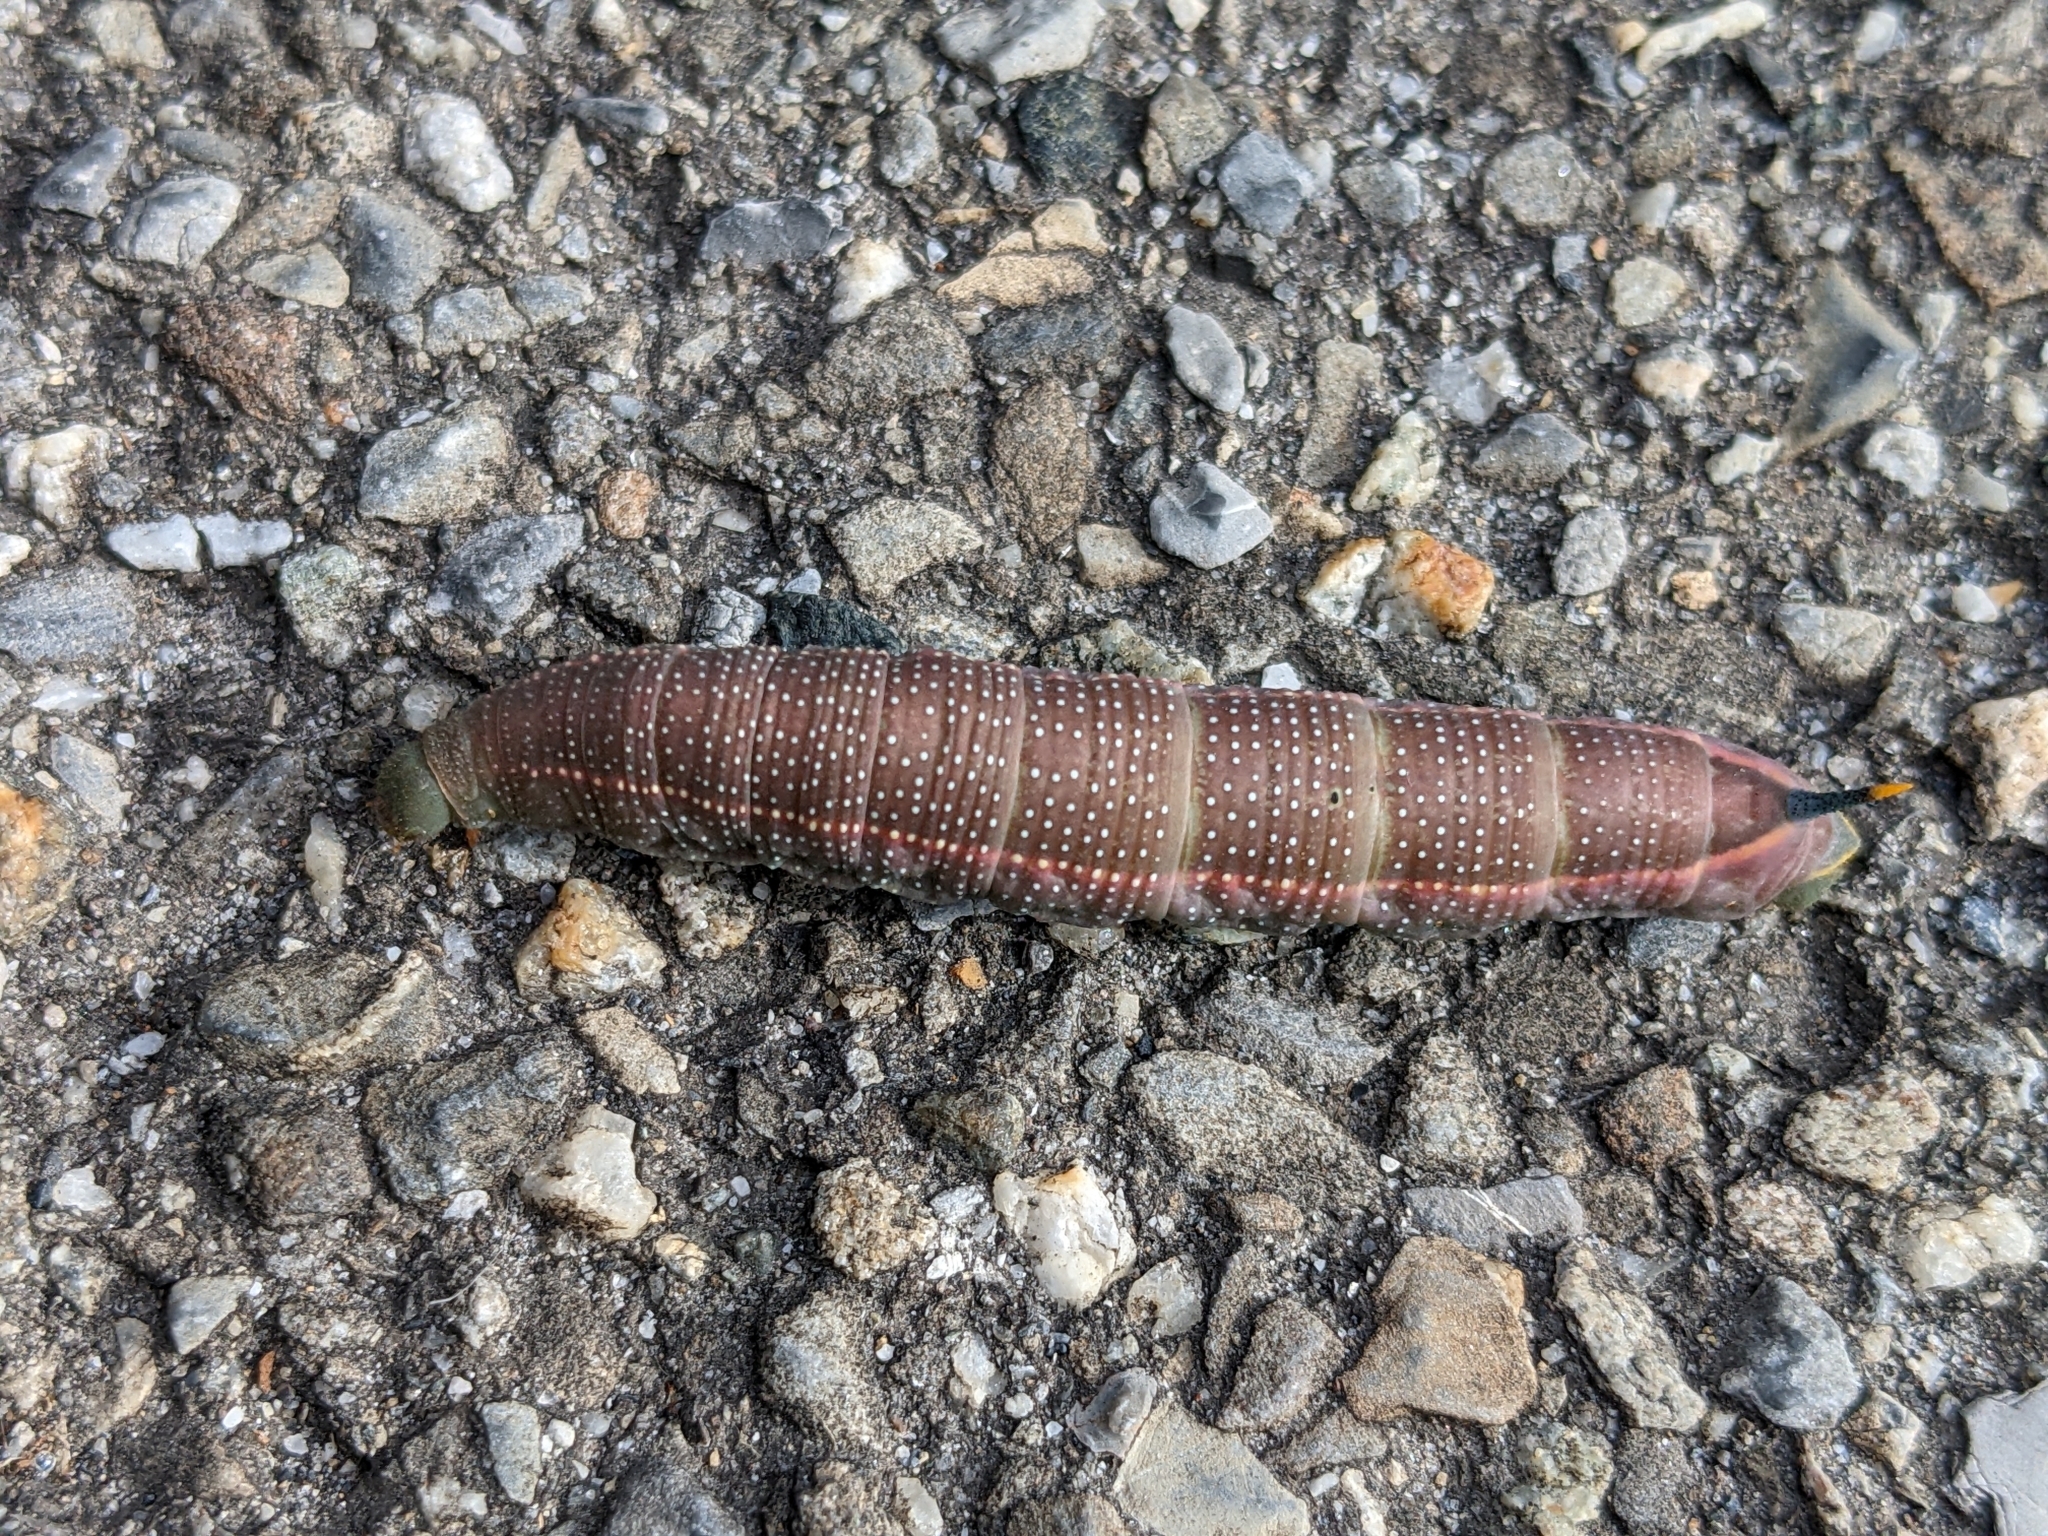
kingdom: Animalia
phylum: Arthropoda
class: Insecta
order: Lepidoptera
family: Sphingidae
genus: Macroglossum
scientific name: Macroglossum stellatarum
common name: Humming-bird hawk-moth
